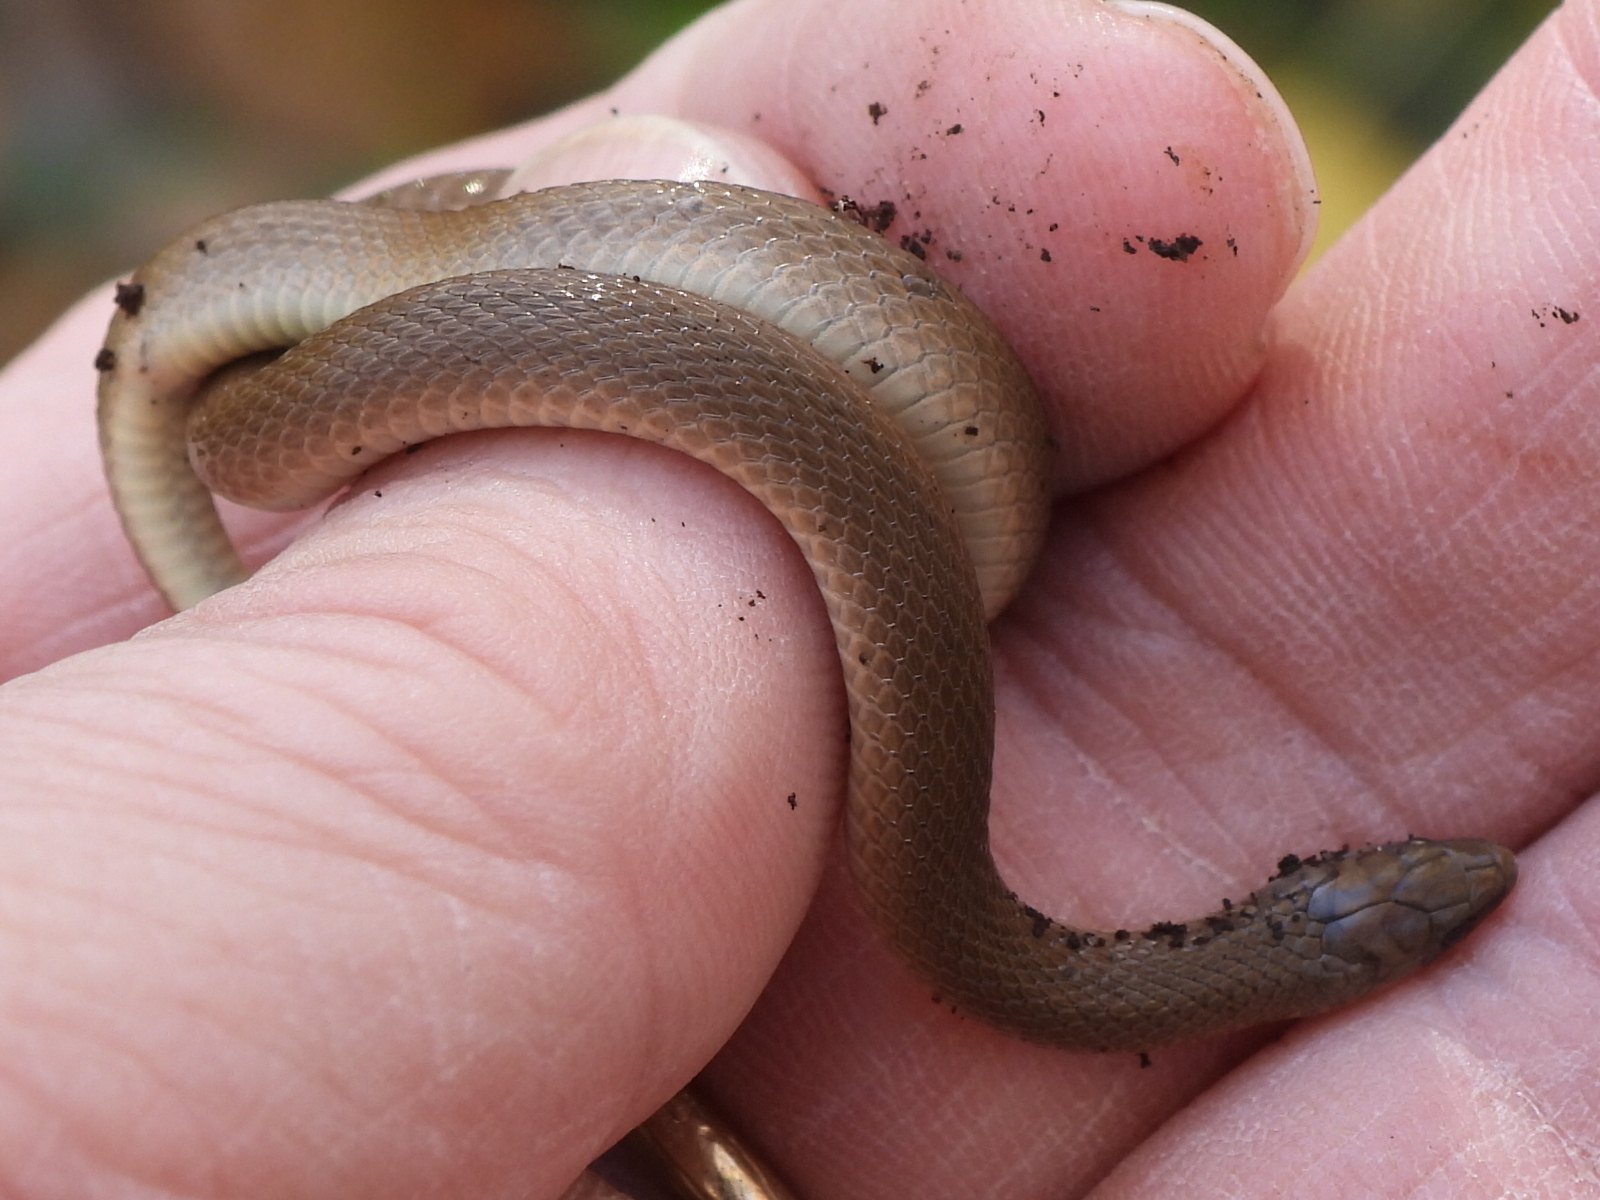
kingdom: Animalia
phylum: Chordata
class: Squamata
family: Colubridae
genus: Haldea
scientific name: Haldea striatula
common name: Rough earth snake
